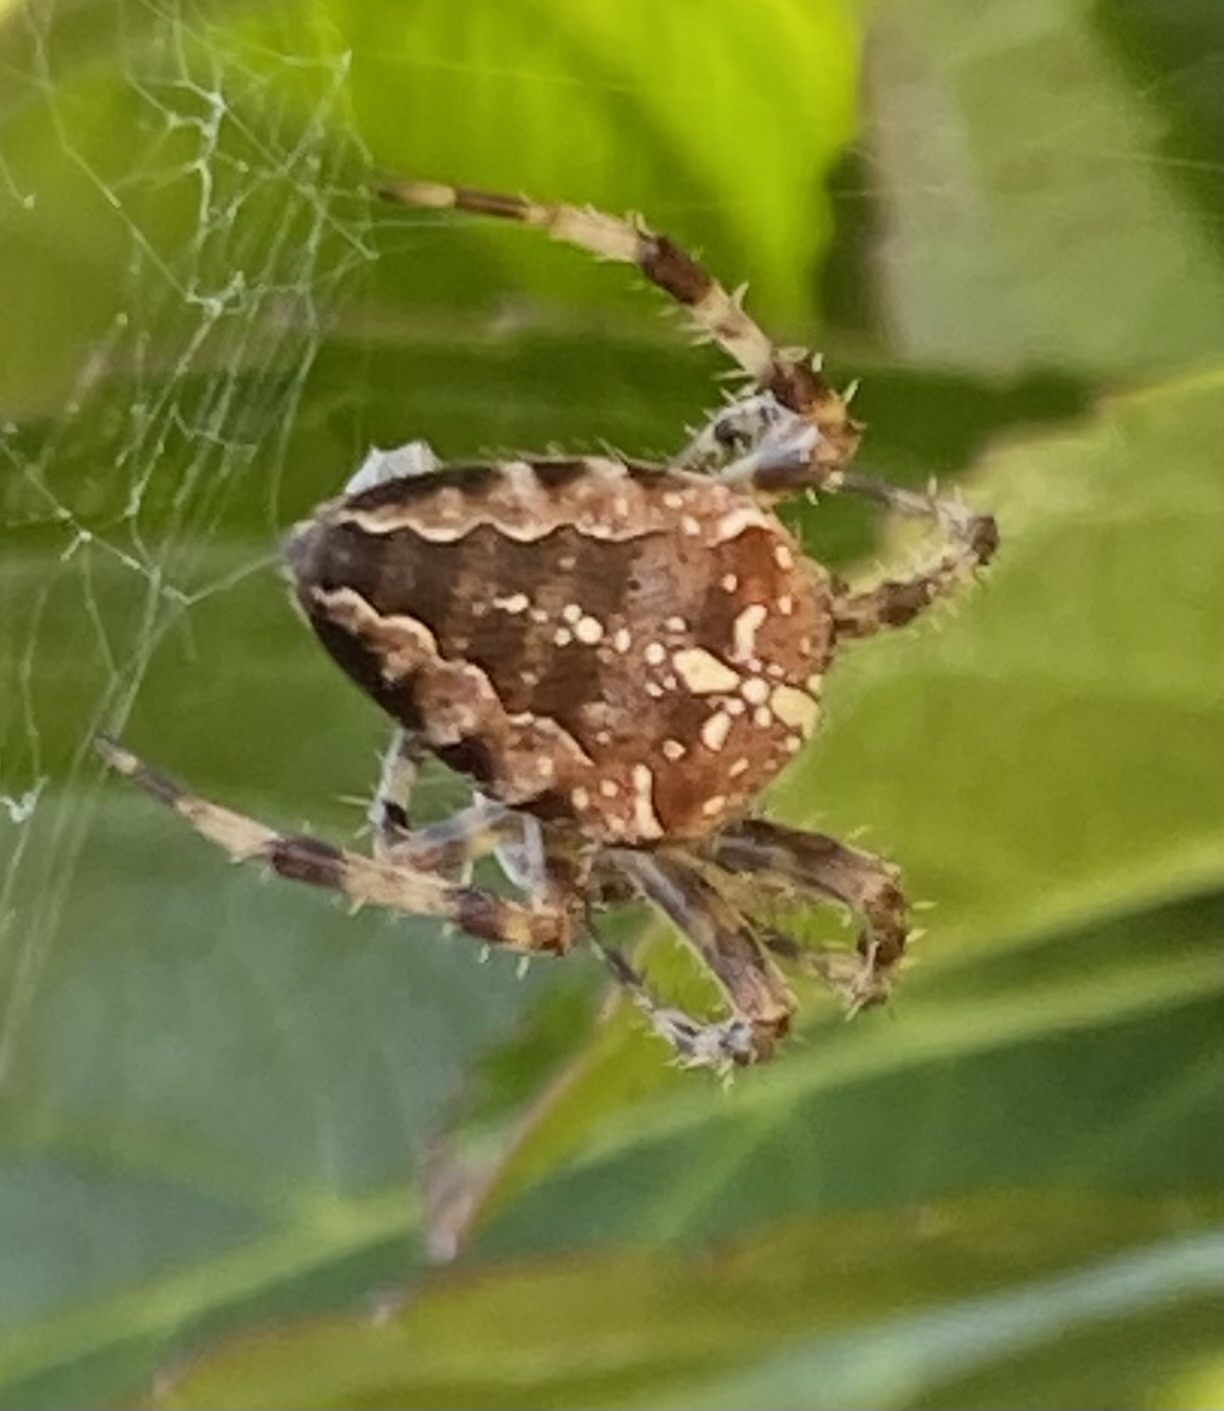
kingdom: Animalia
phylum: Arthropoda
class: Arachnida
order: Araneae
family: Araneidae
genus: Araneus
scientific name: Araneus diadematus
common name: Cross orbweaver
